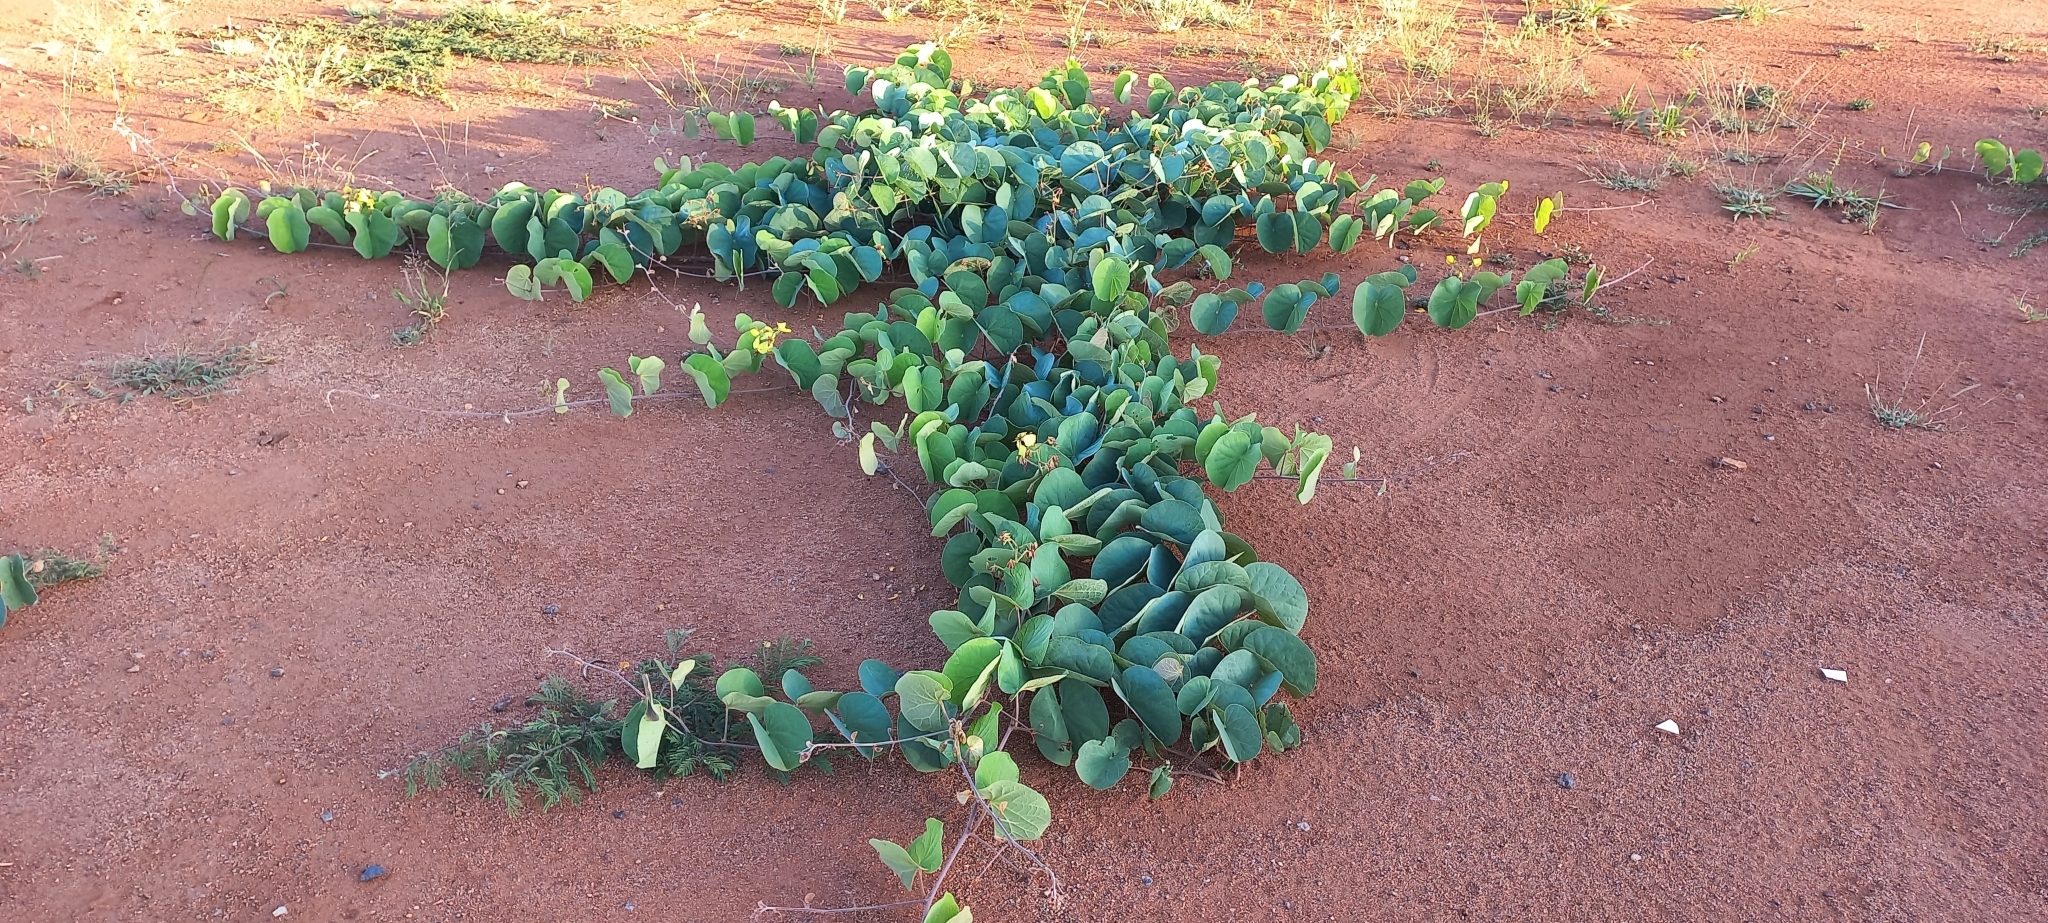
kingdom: Plantae
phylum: Tracheophyta
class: Magnoliopsida
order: Fabales
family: Fabaceae
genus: Tylosema
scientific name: Tylosema fassoglense
